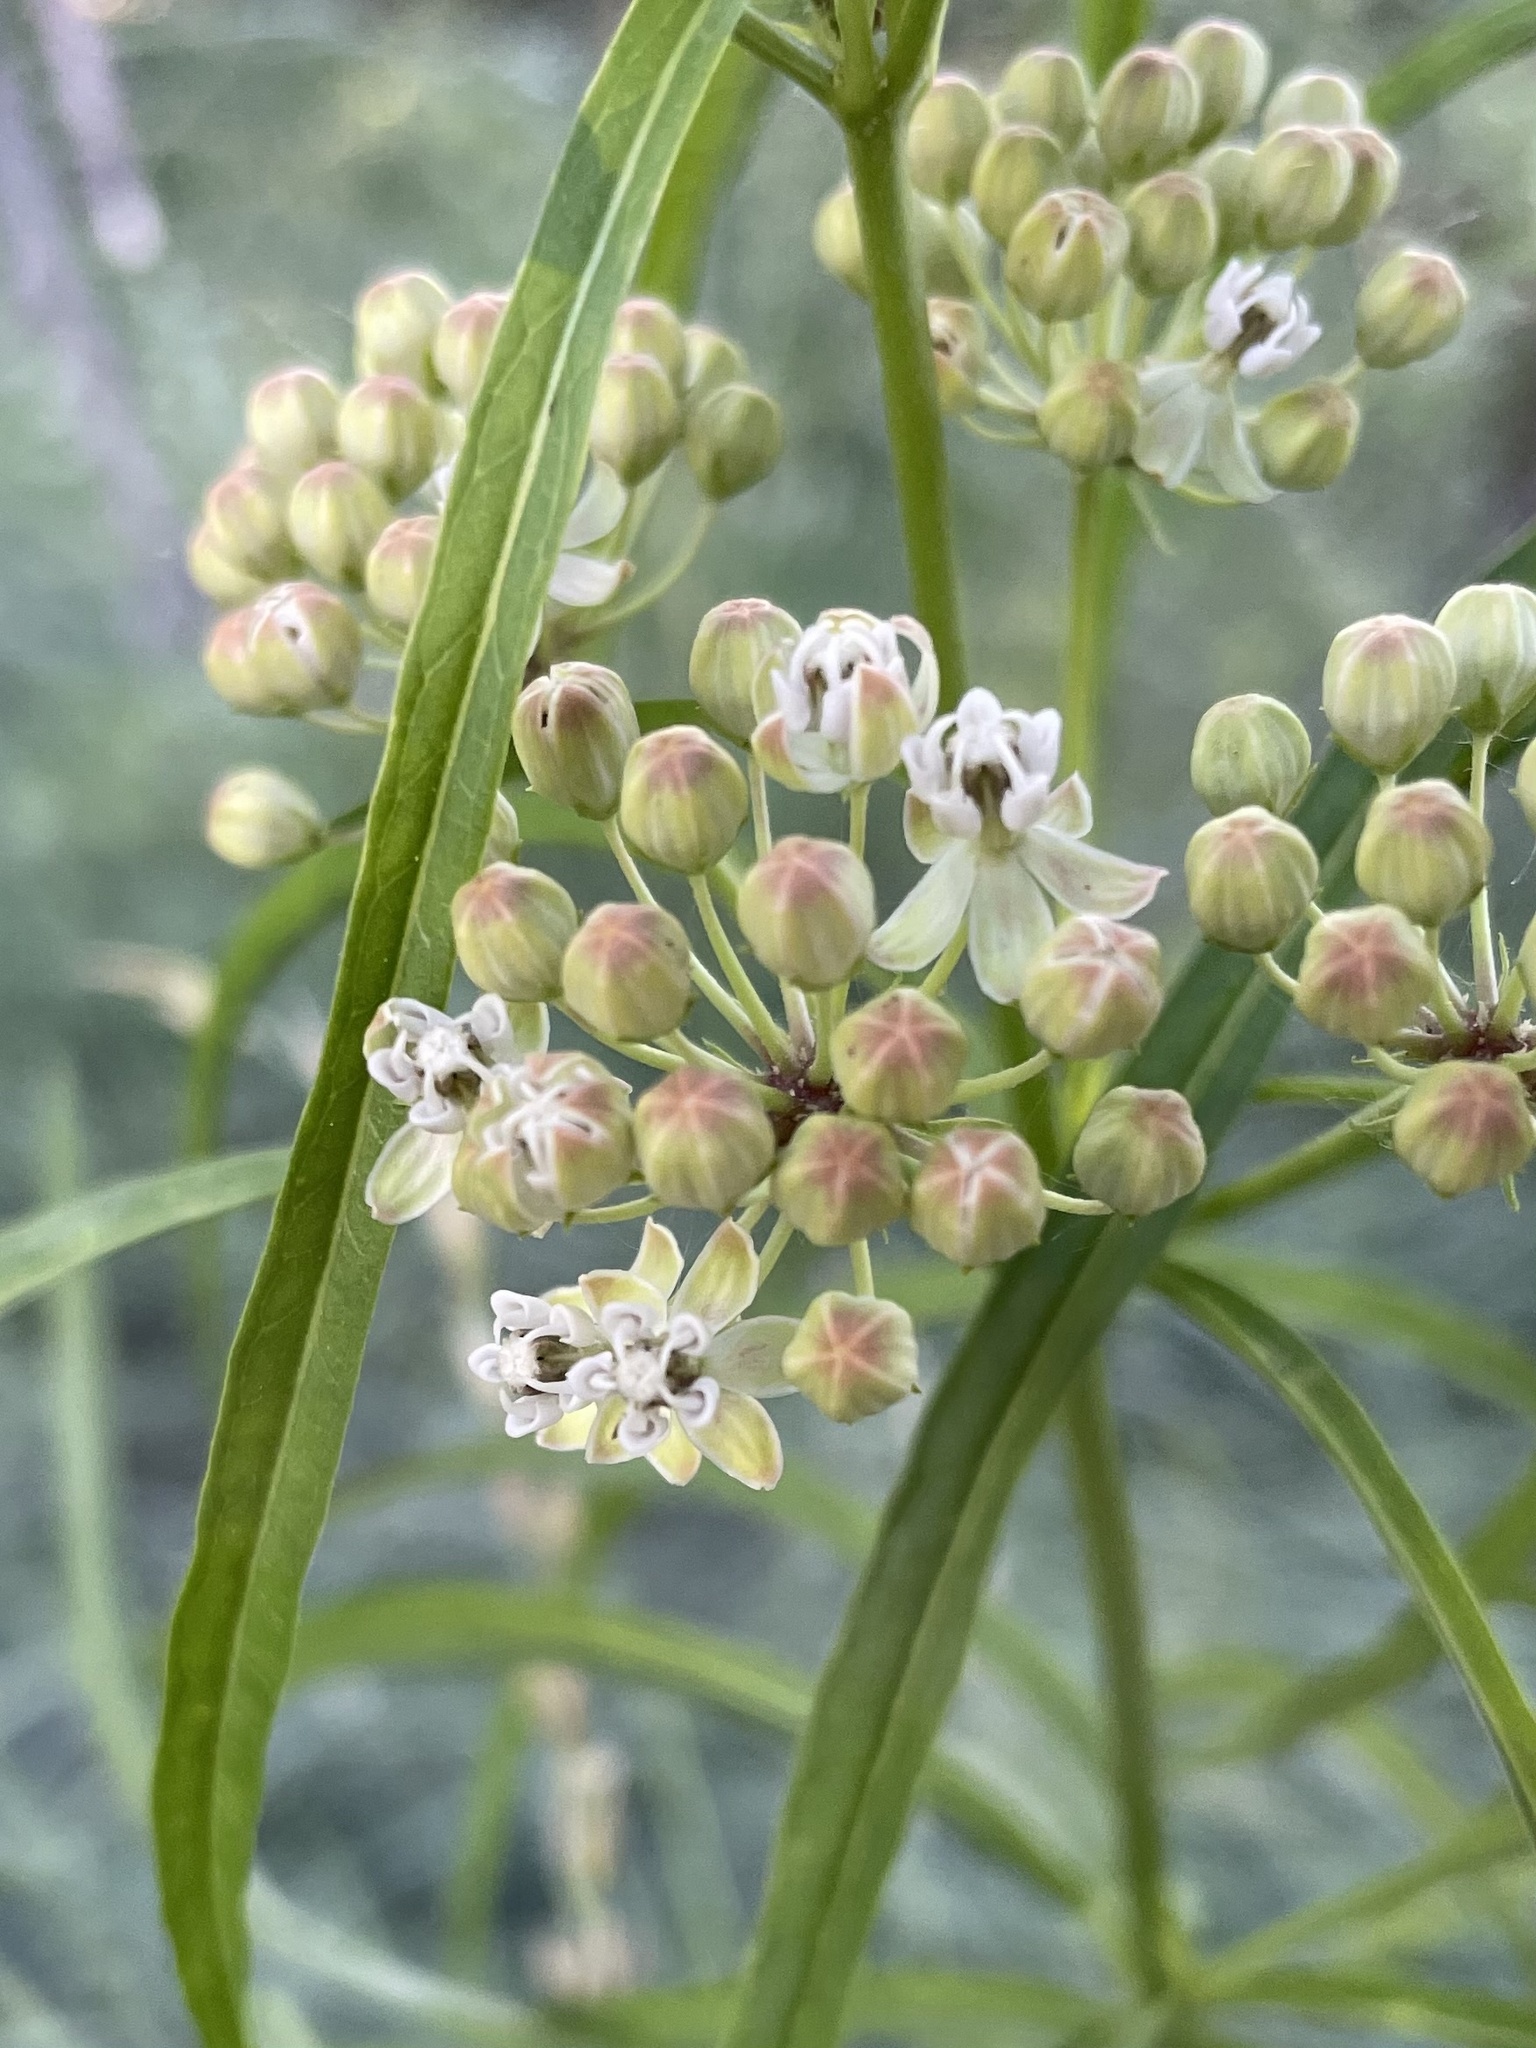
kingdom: Plantae
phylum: Tracheophyta
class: Magnoliopsida
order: Gentianales
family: Apocynaceae
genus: Asclepias
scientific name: Asclepias fascicularis
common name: Mexican milkweed
